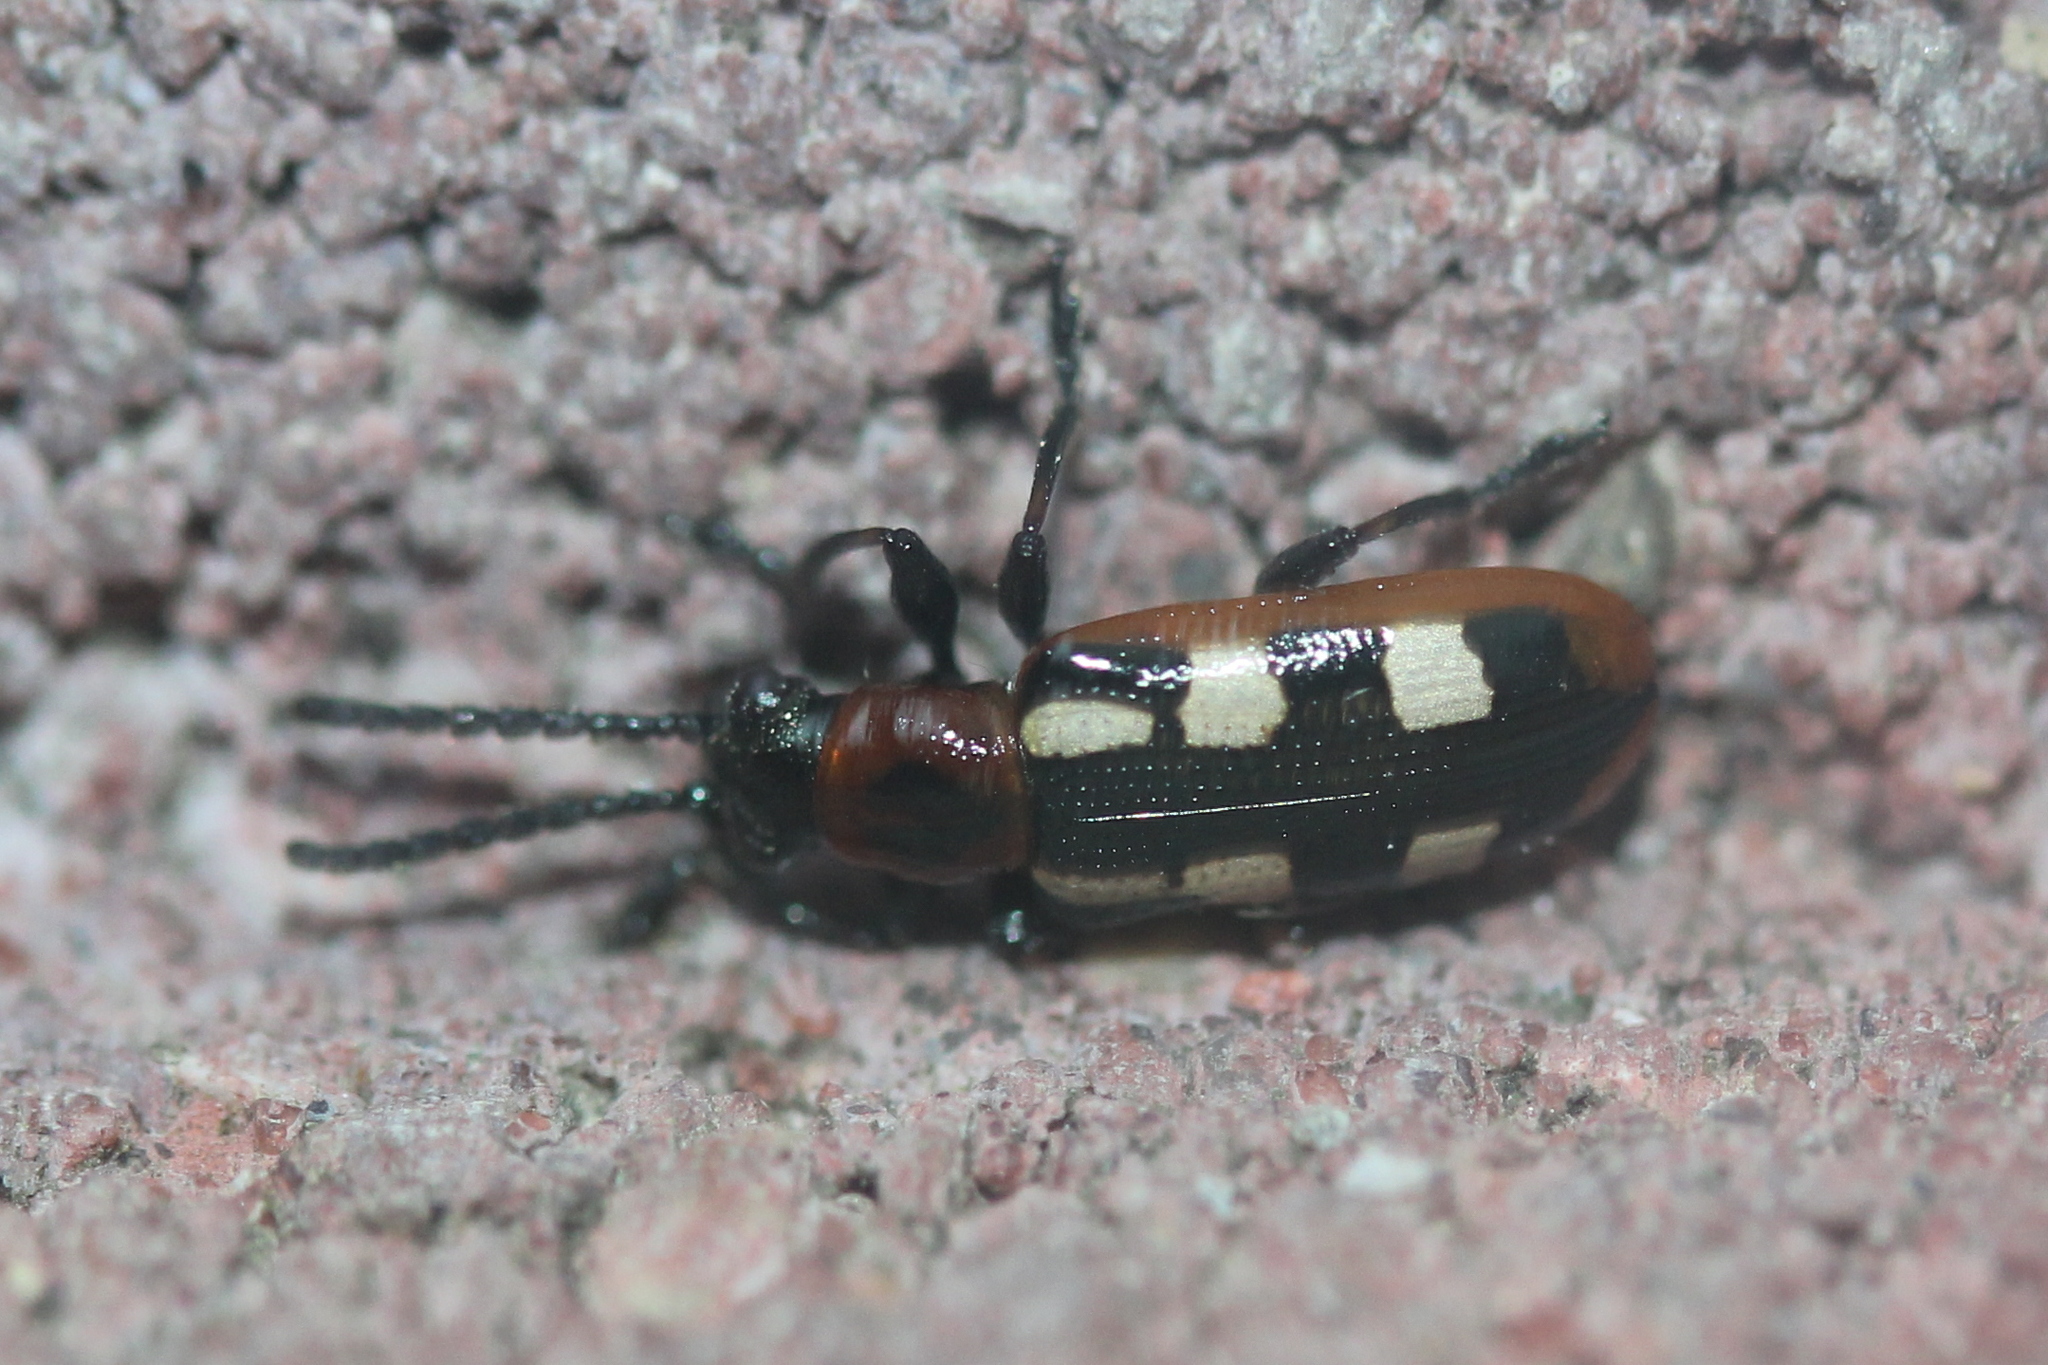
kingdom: Animalia
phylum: Arthropoda
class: Insecta
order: Coleoptera
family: Chrysomelidae
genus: Crioceris
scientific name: Crioceris asparagi
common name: Asparagus beetle
